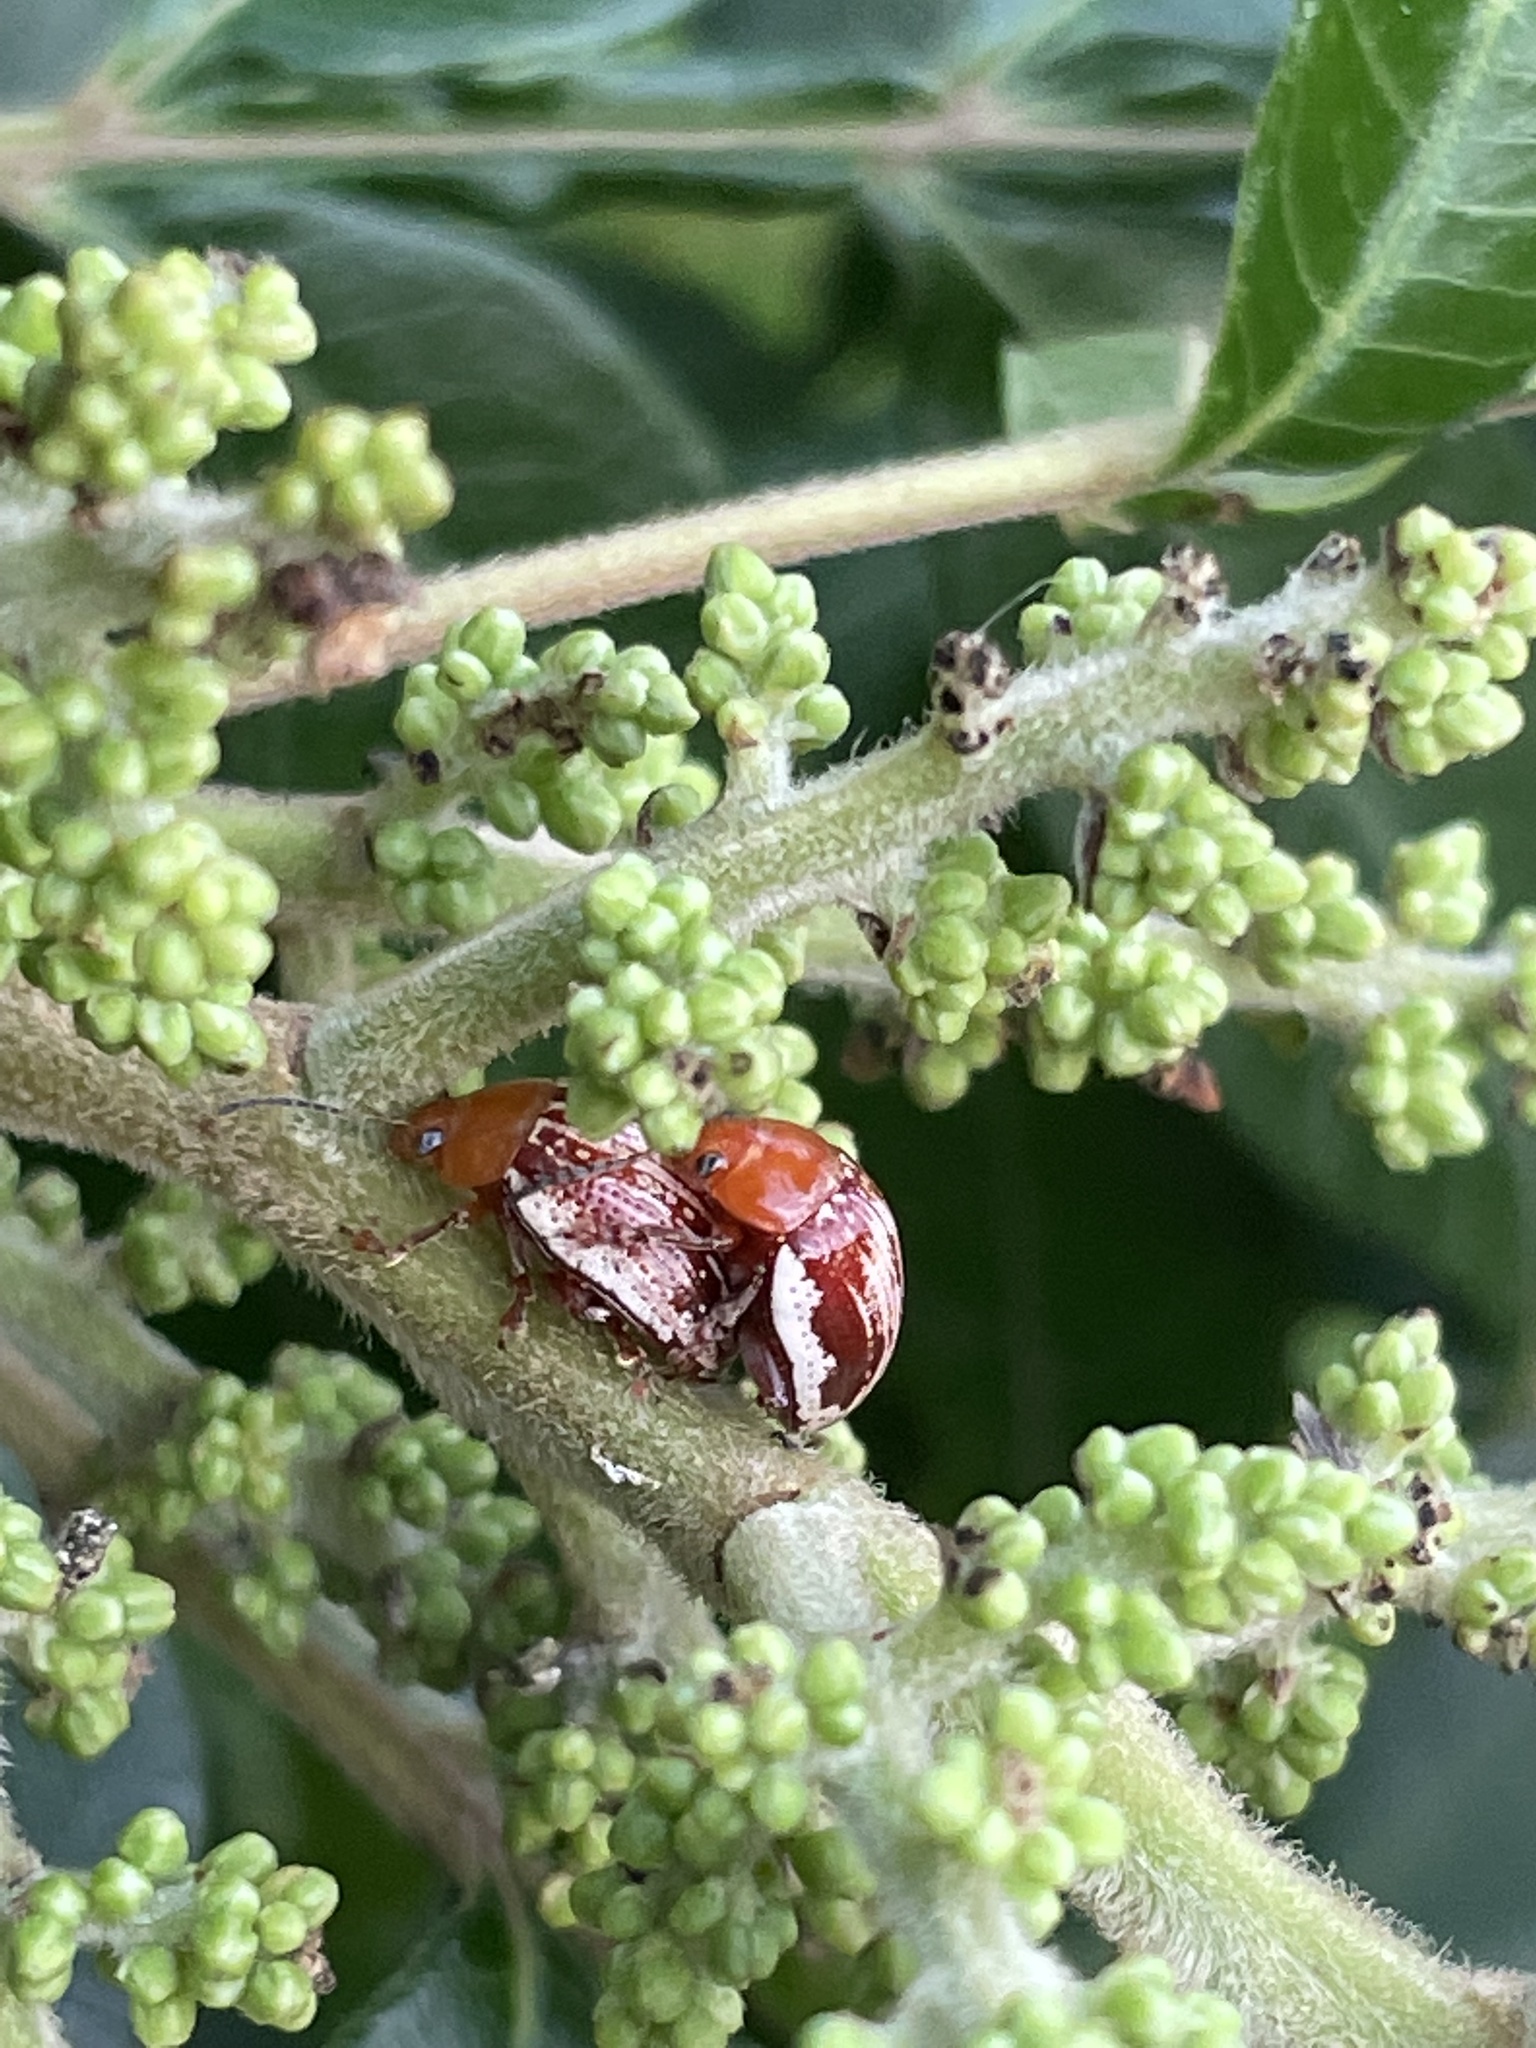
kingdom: Animalia
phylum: Arthropoda
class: Insecta
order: Coleoptera
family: Chrysomelidae
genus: Blepharida
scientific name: Blepharida rhois
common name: Sumac flea beetle
